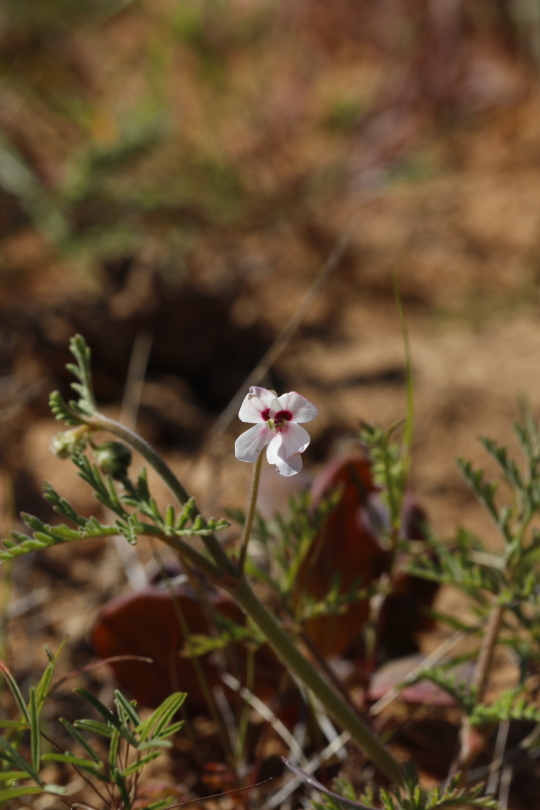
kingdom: Plantae
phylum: Tracheophyta
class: Magnoliopsida
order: Geraniales
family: Geraniaceae
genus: Pelargonium
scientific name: Pelargonium senecioides
